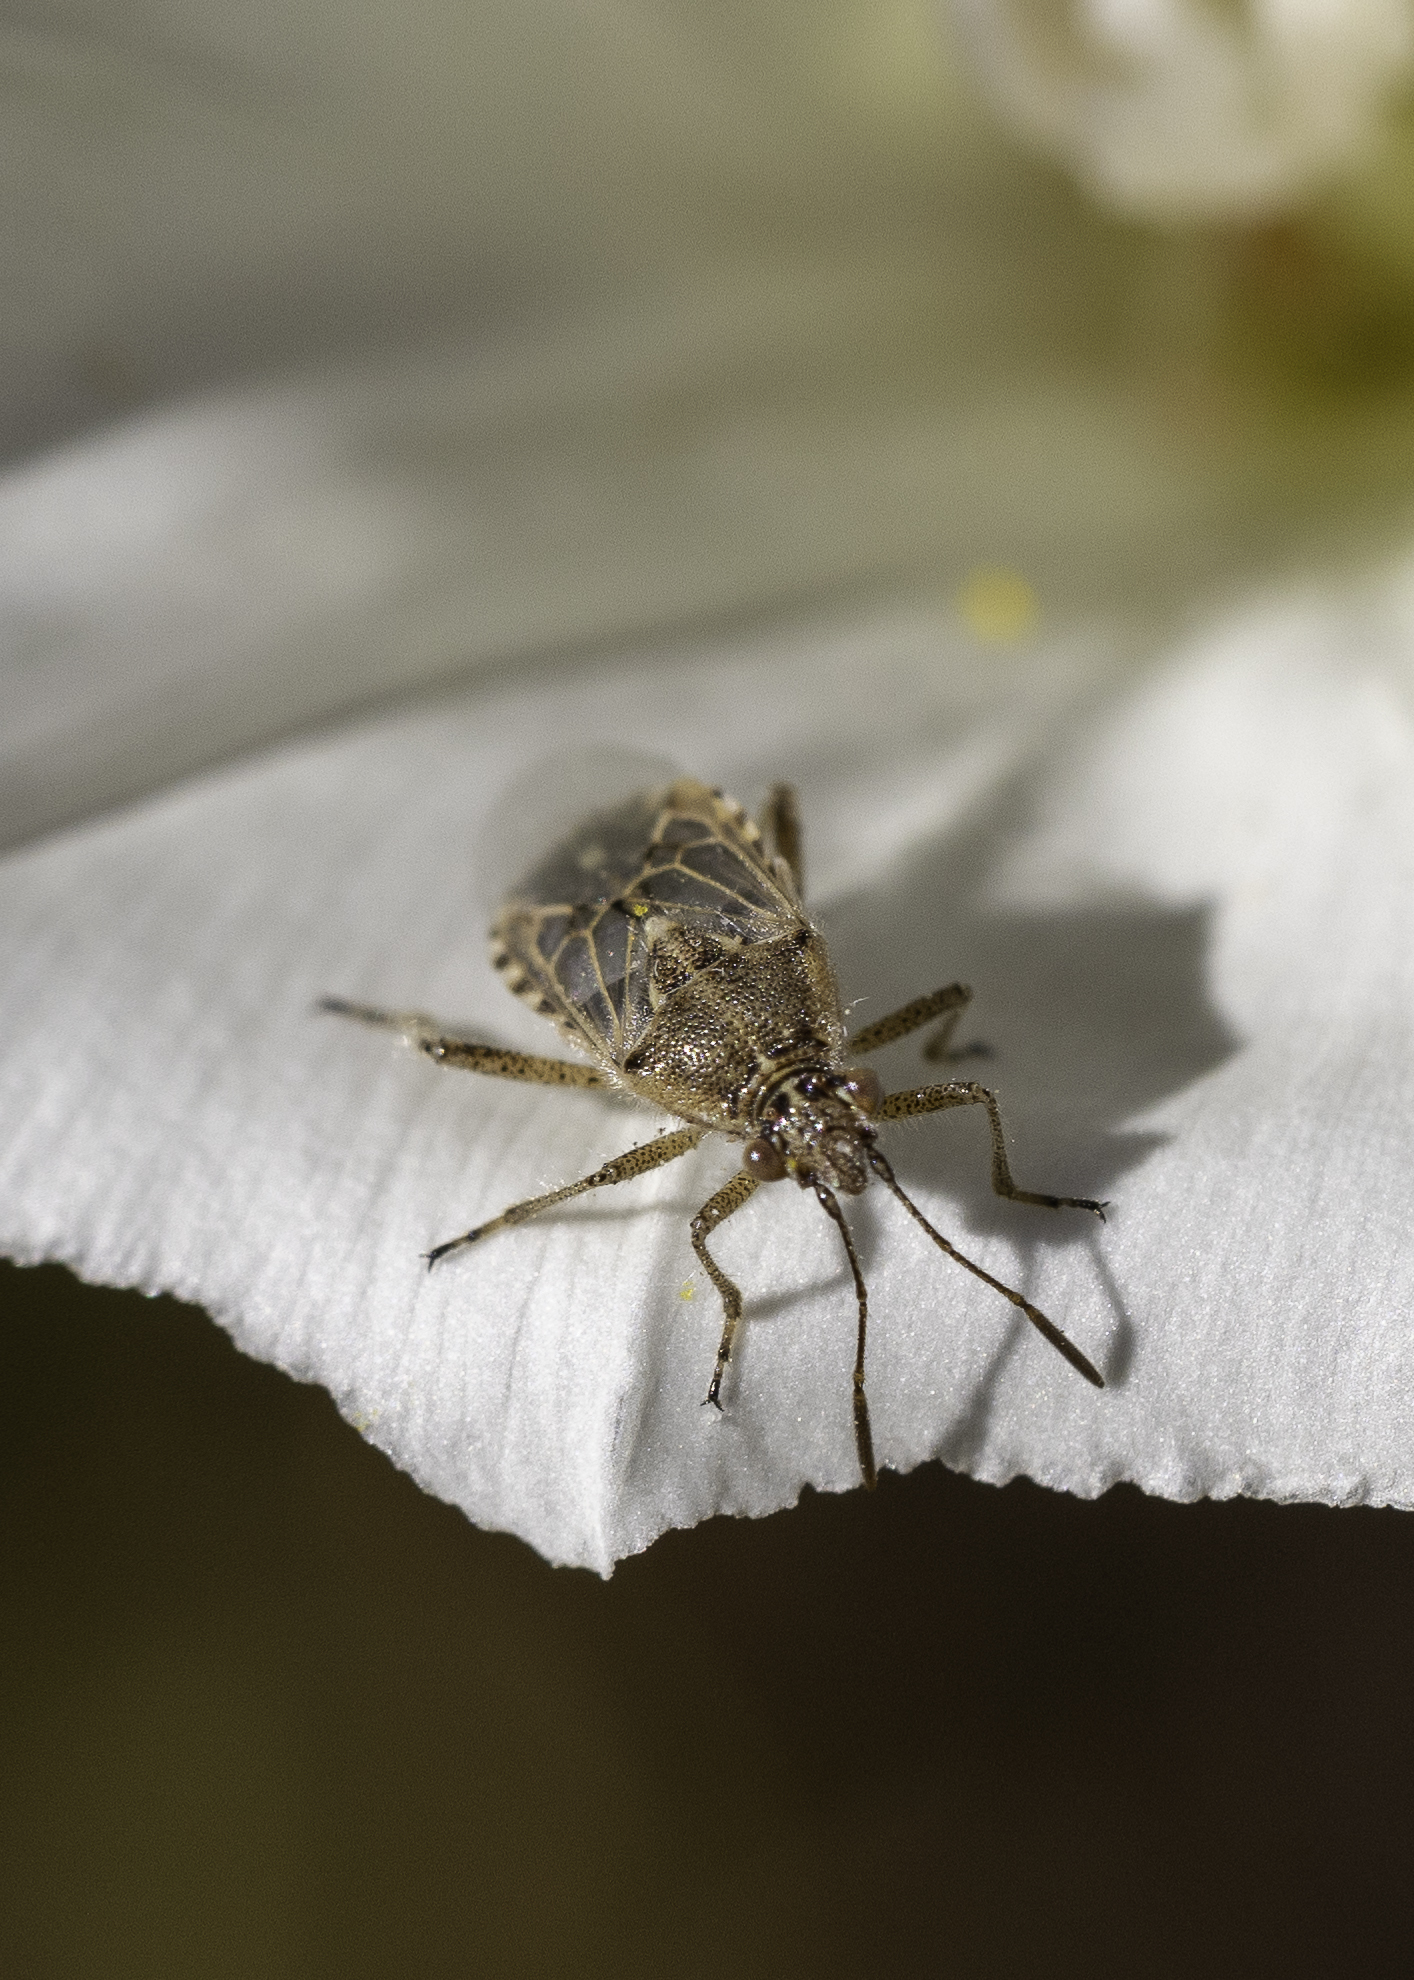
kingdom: Animalia
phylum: Arthropoda
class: Insecta
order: Hemiptera
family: Rhopalidae
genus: Liorhyssus
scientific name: Liorhyssus hyalinus
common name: Scentless plant bug
